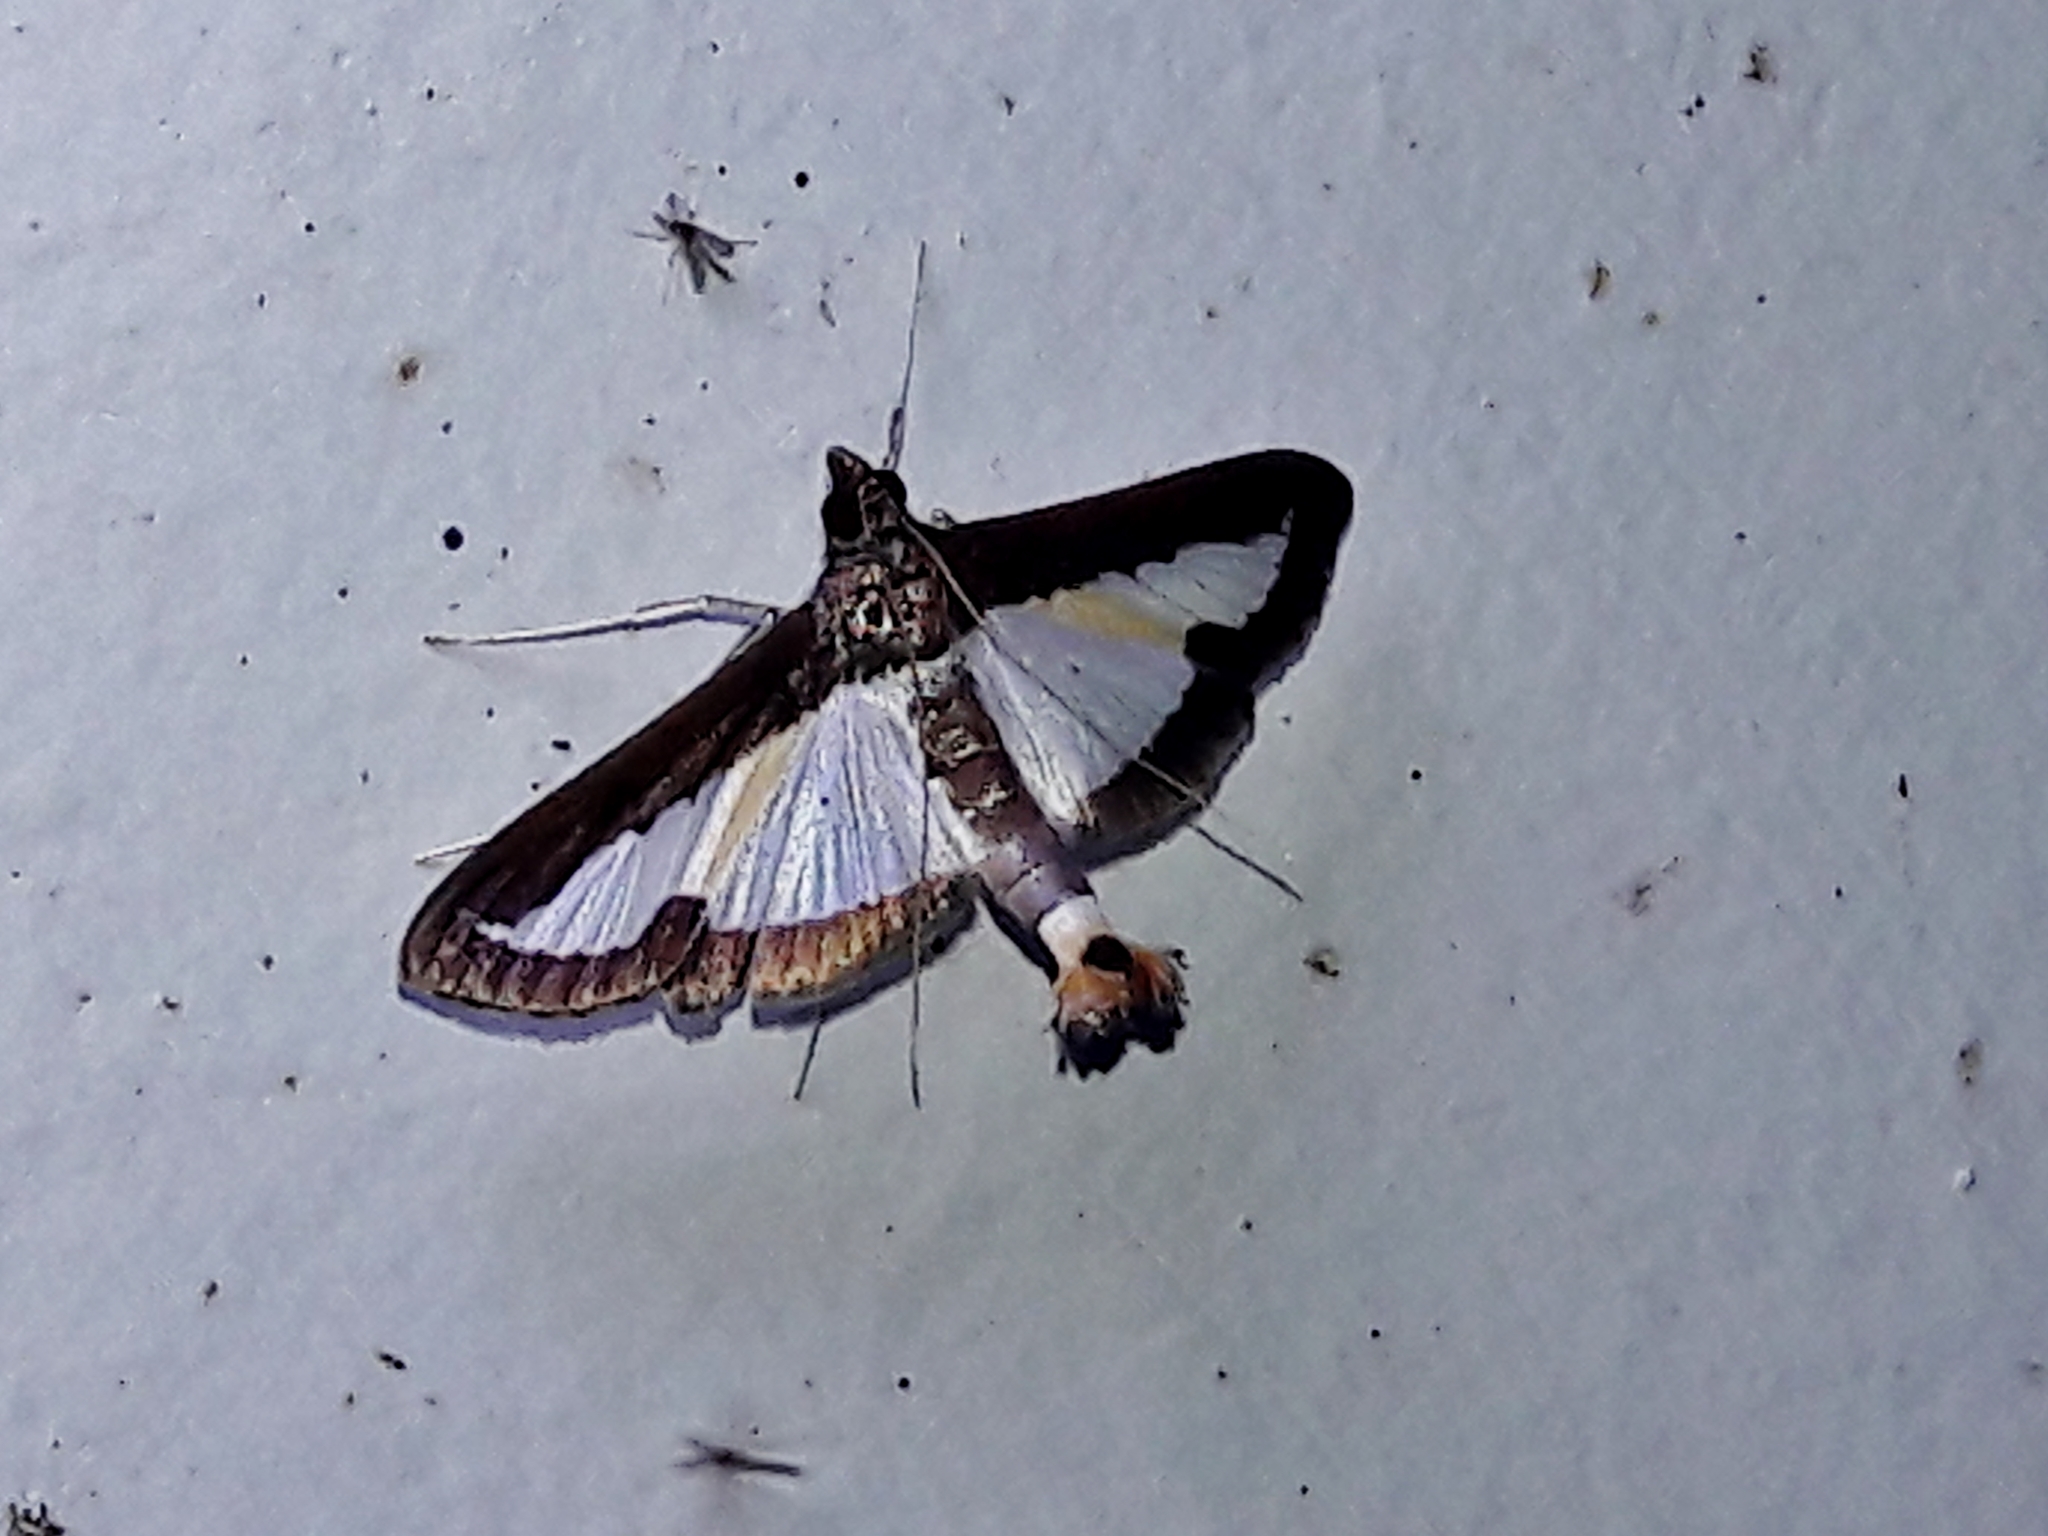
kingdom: Animalia
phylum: Arthropoda
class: Insecta
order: Lepidoptera
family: Crambidae
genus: Diaphania
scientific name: Diaphania elegans
